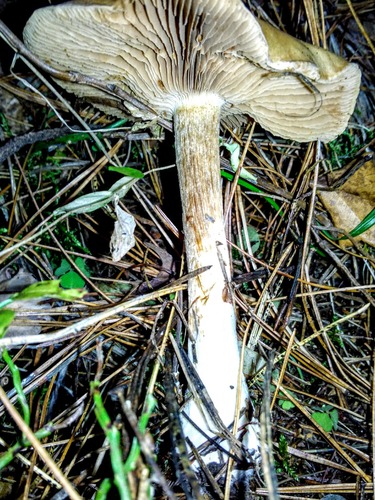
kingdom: Fungi
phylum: Basidiomycota
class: Agaricomycetes
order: Agaricales
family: Tricholomataceae
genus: Leucocortinarius
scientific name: Leucocortinarius bulbiger
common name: White webcap
